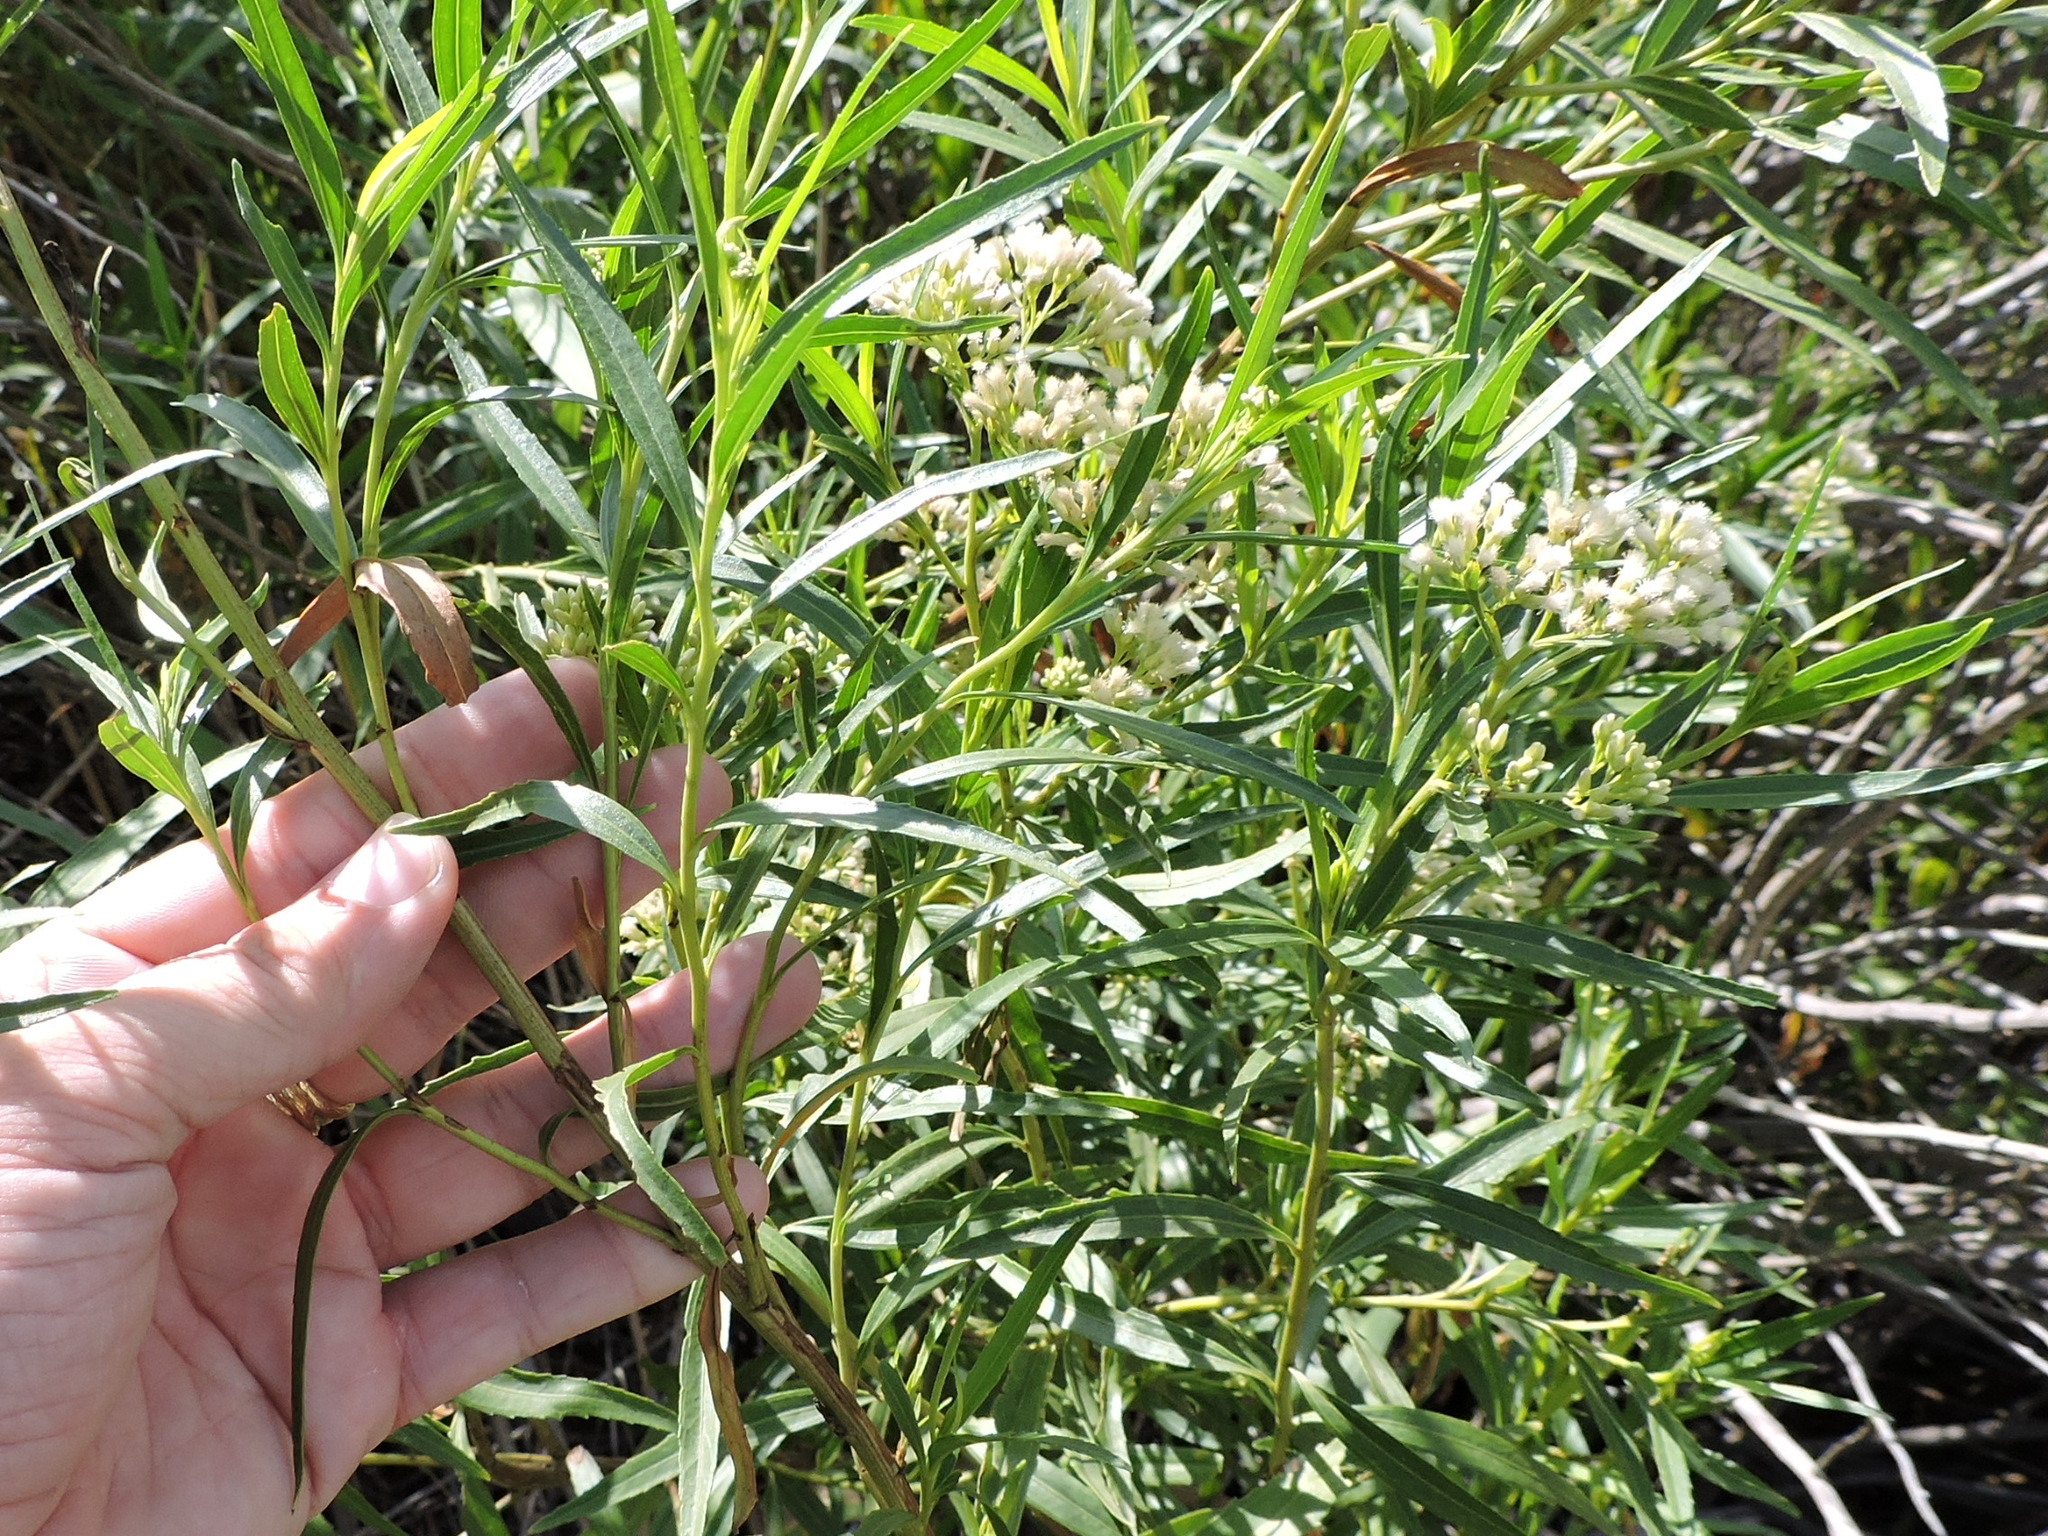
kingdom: Plantae
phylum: Tracheophyta
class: Magnoliopsida
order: Asterales
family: Asteraceae
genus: Baccharis
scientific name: Baccharis salicifolia
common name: Sticky baccharis
